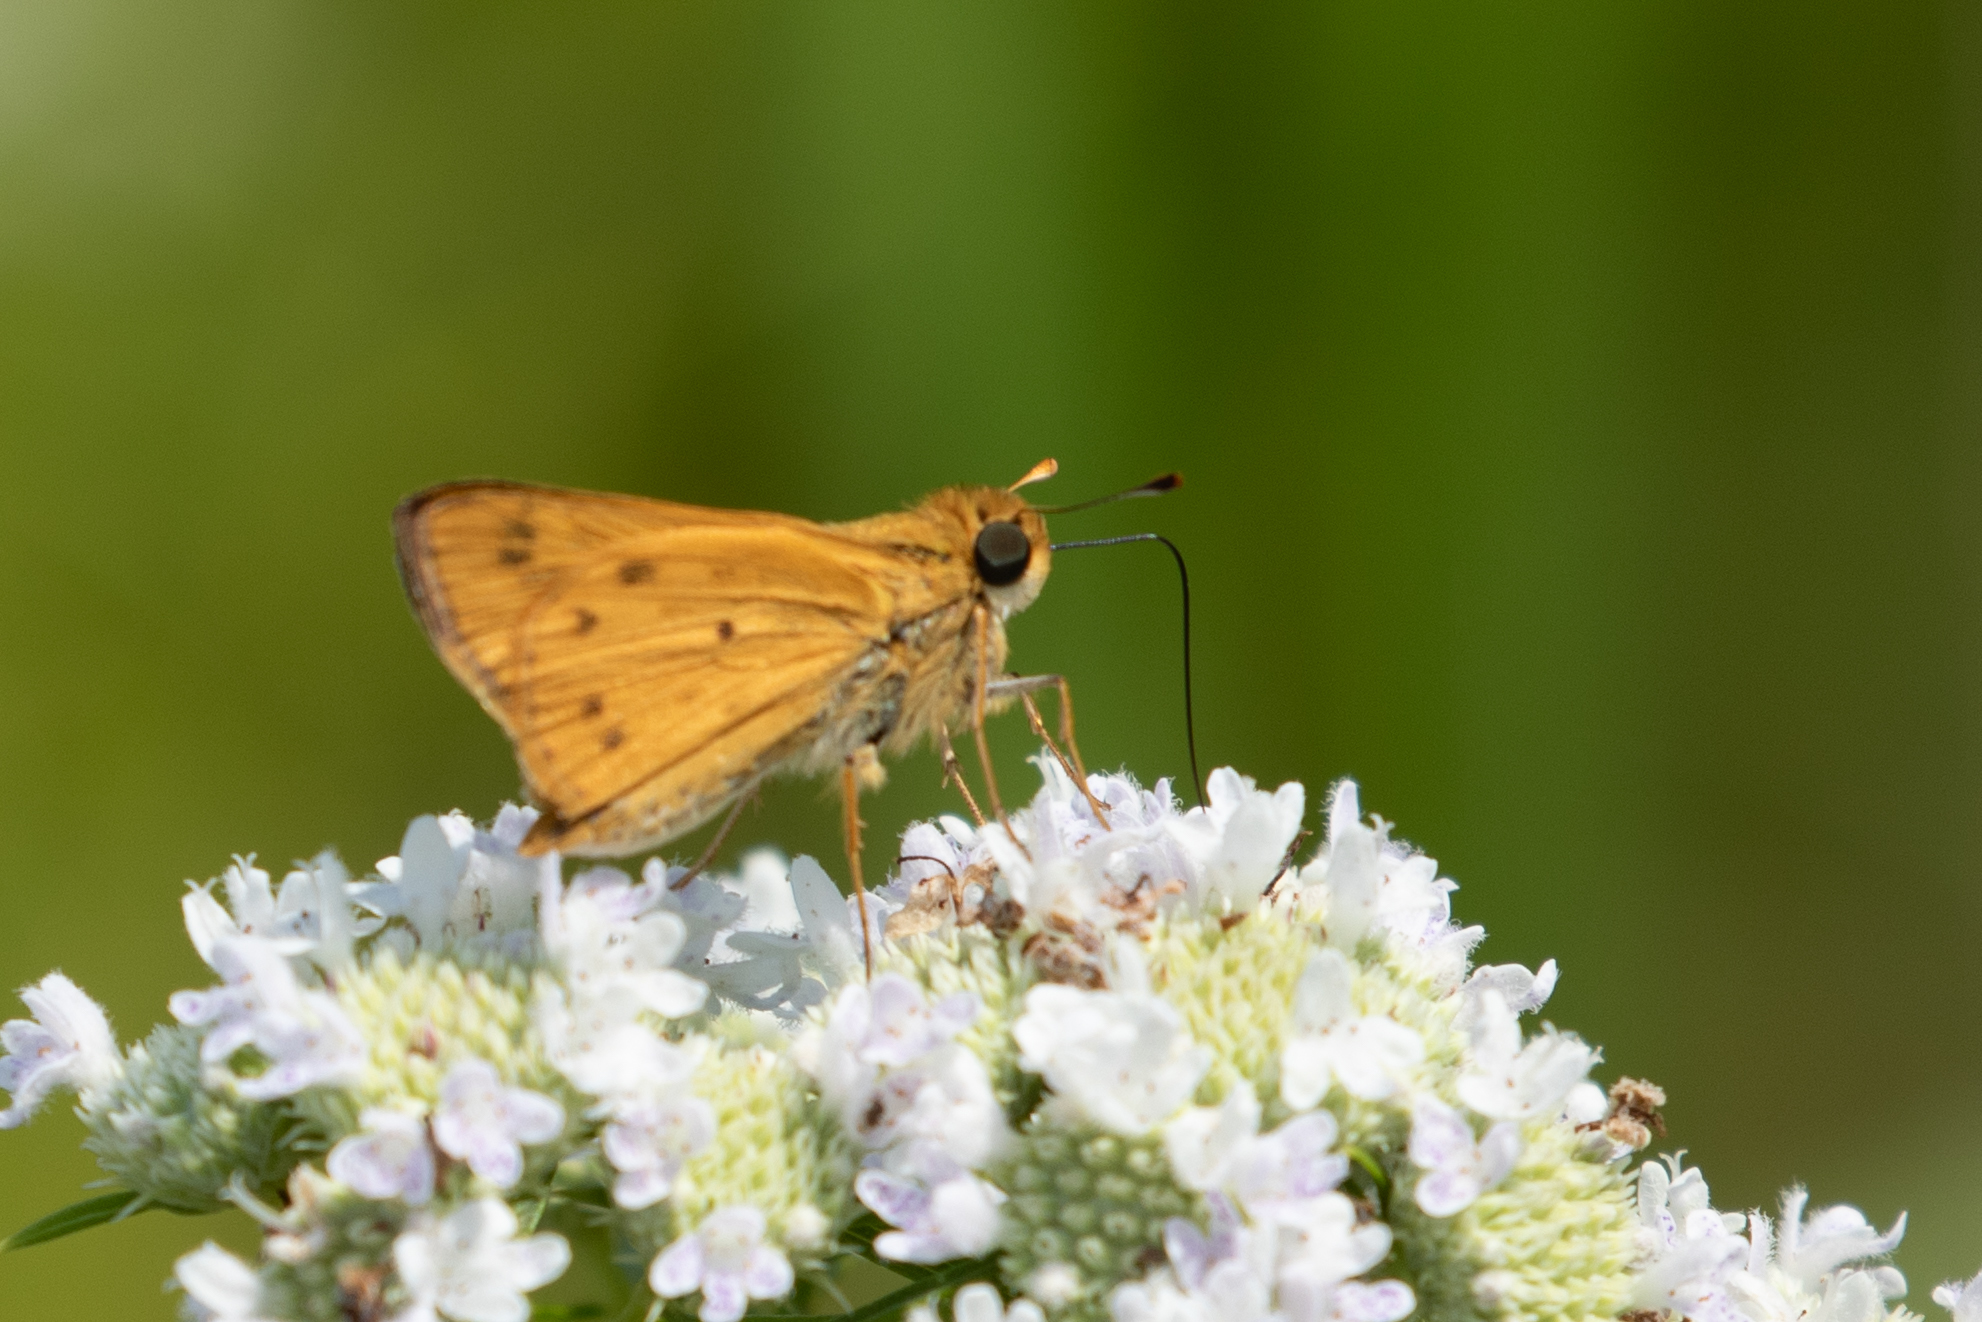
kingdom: Animalia
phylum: Arthropoda
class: Insecta
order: Lepidoptera
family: Hesperiidae
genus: Hylephila
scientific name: Hylephila phyleus
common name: Fiery skipper
